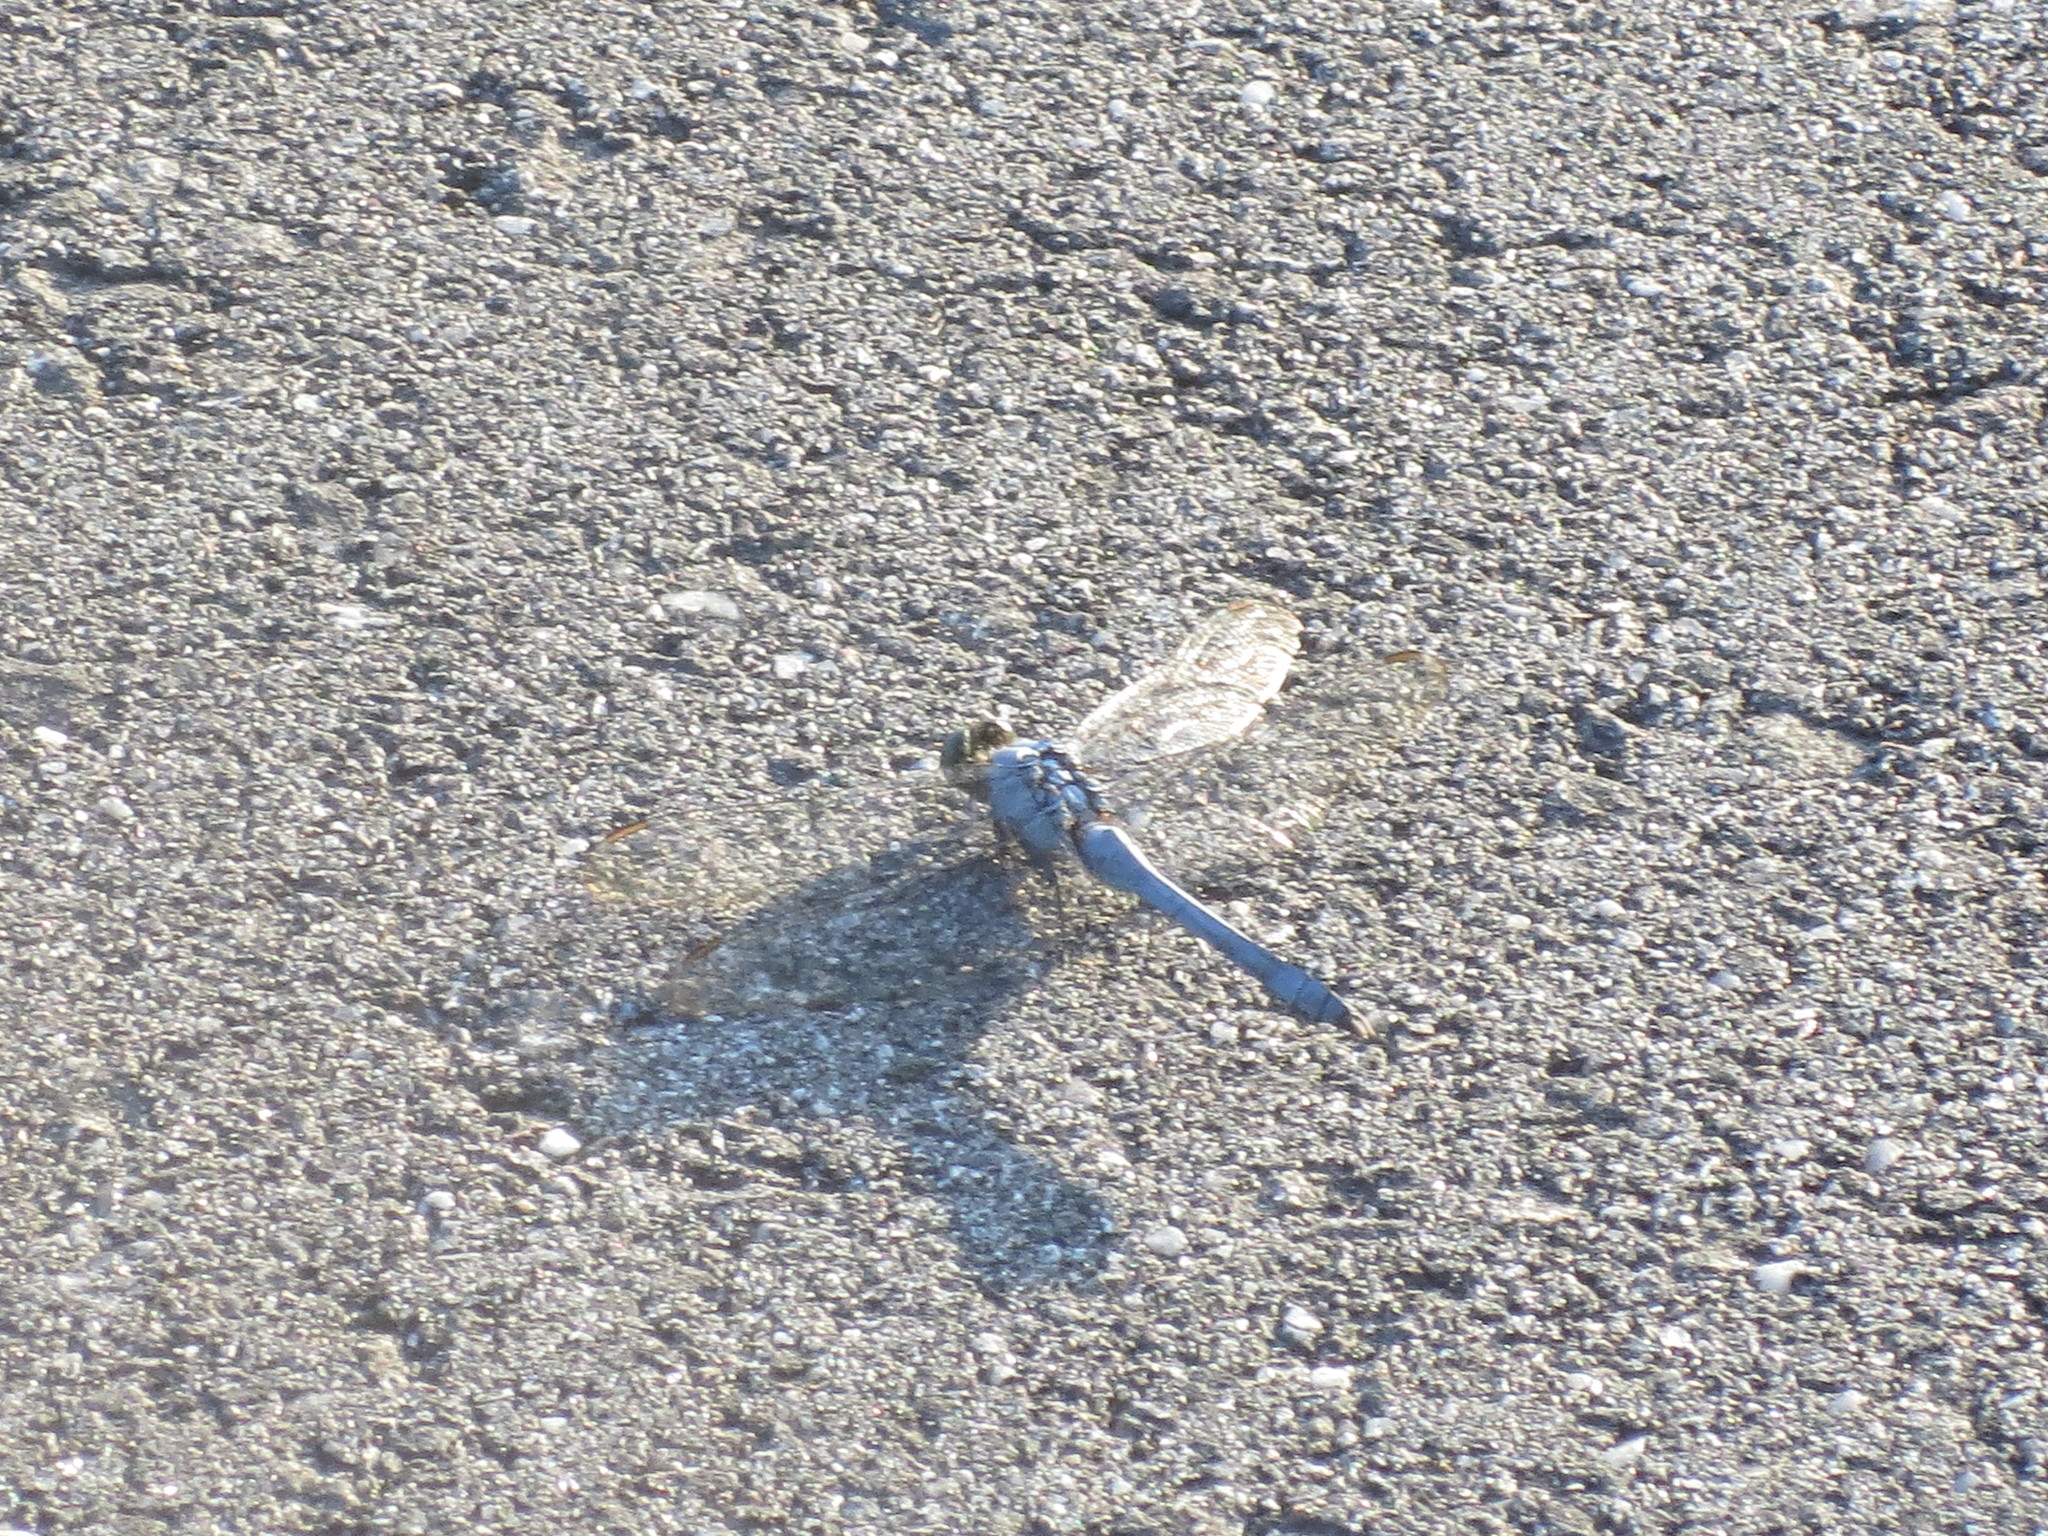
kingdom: Animalia
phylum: Arthropoda
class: Insecta
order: Odonata
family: Libellulidae
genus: Erythemis
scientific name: Erythemis simplicicollis
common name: Eastern pondhawk
